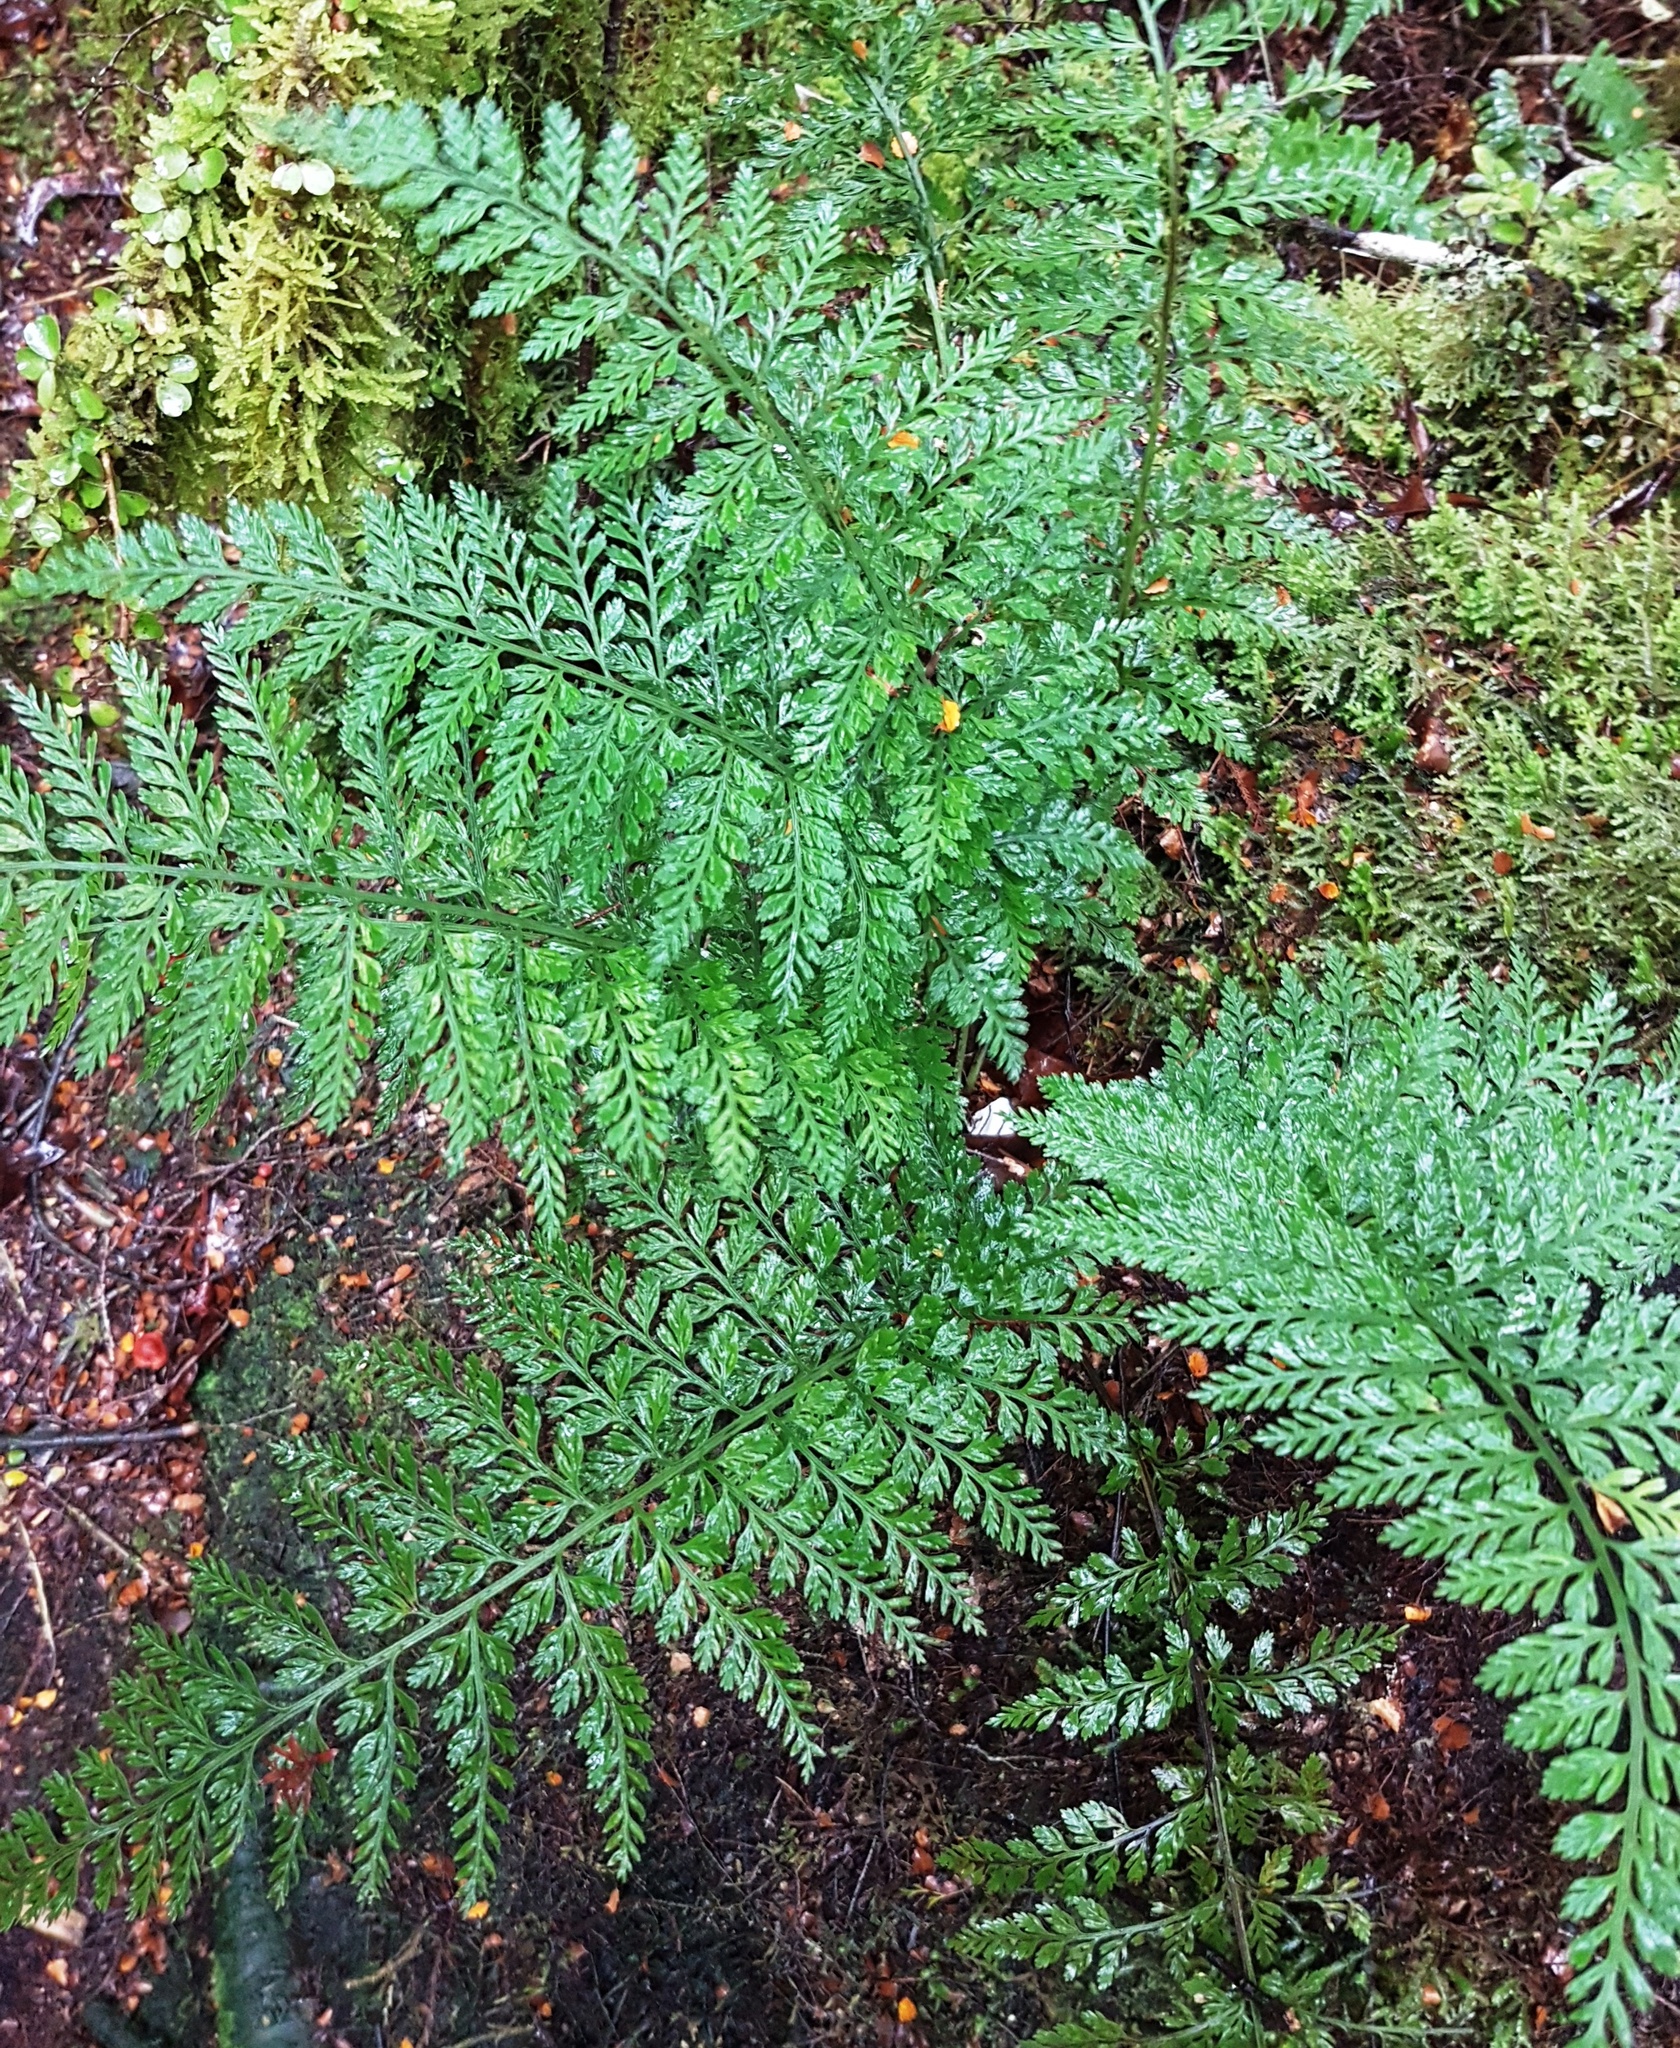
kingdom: Plantae
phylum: Tracheophyta
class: Polypodiopsida
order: Polypodiales
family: Aspleniaceae
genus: Asplenium
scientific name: Asplenium
